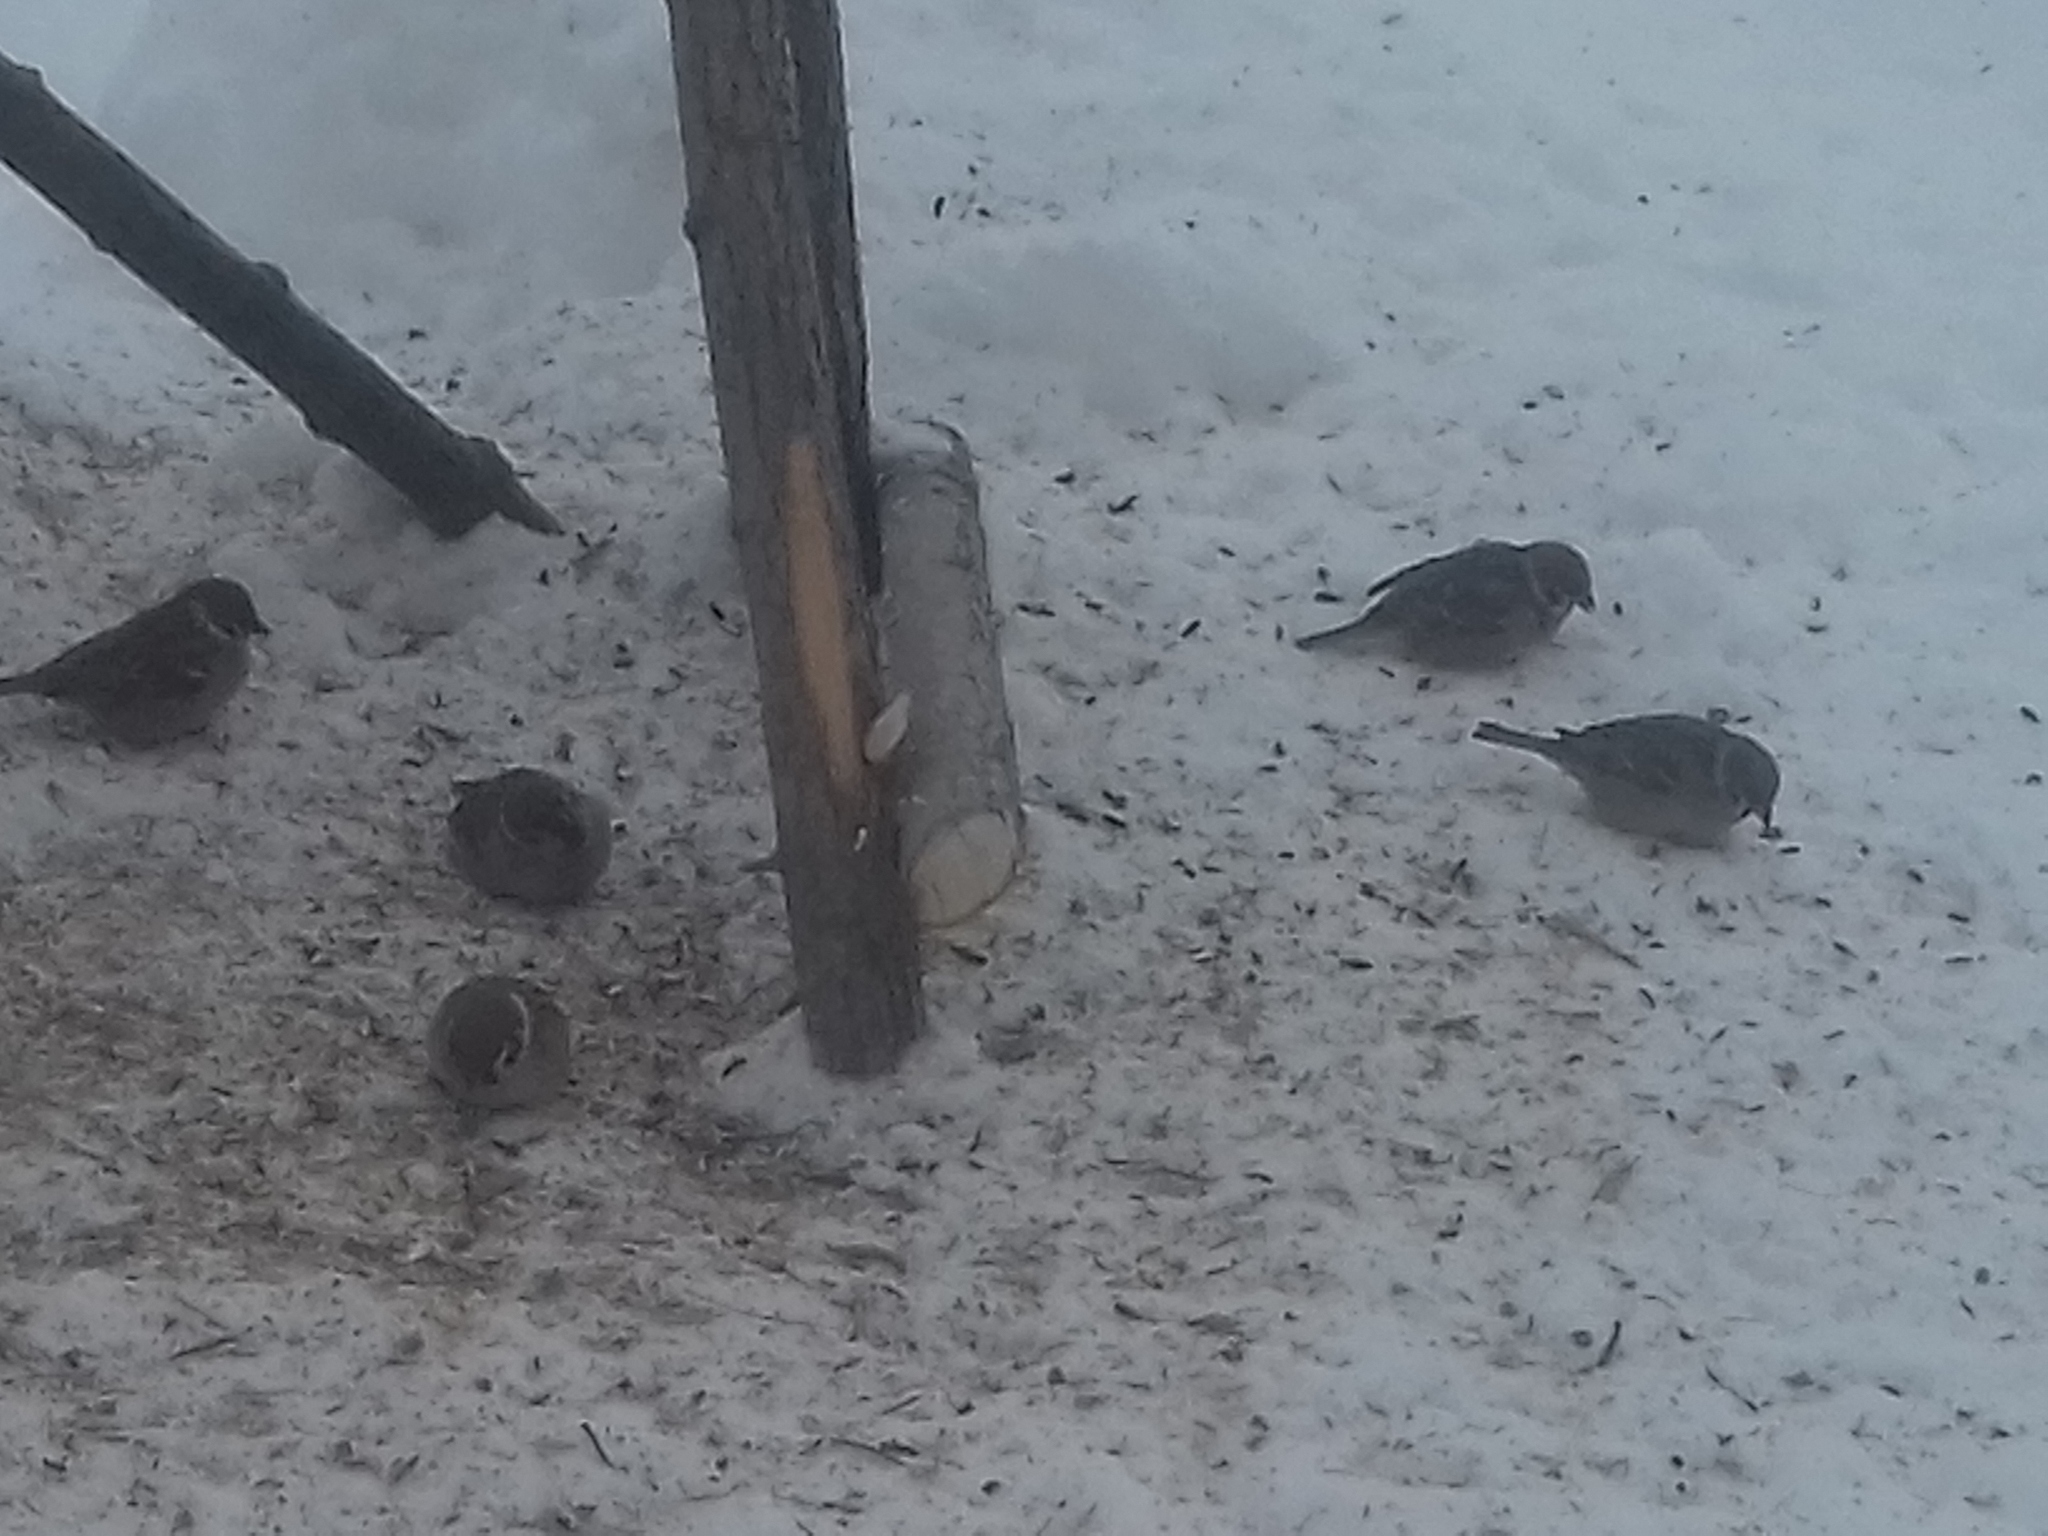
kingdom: Animalia
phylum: Chordata
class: Aves
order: Passeriformes
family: Passeridae
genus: Passer
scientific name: Passer montanus
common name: Eurasian tree sparrow
